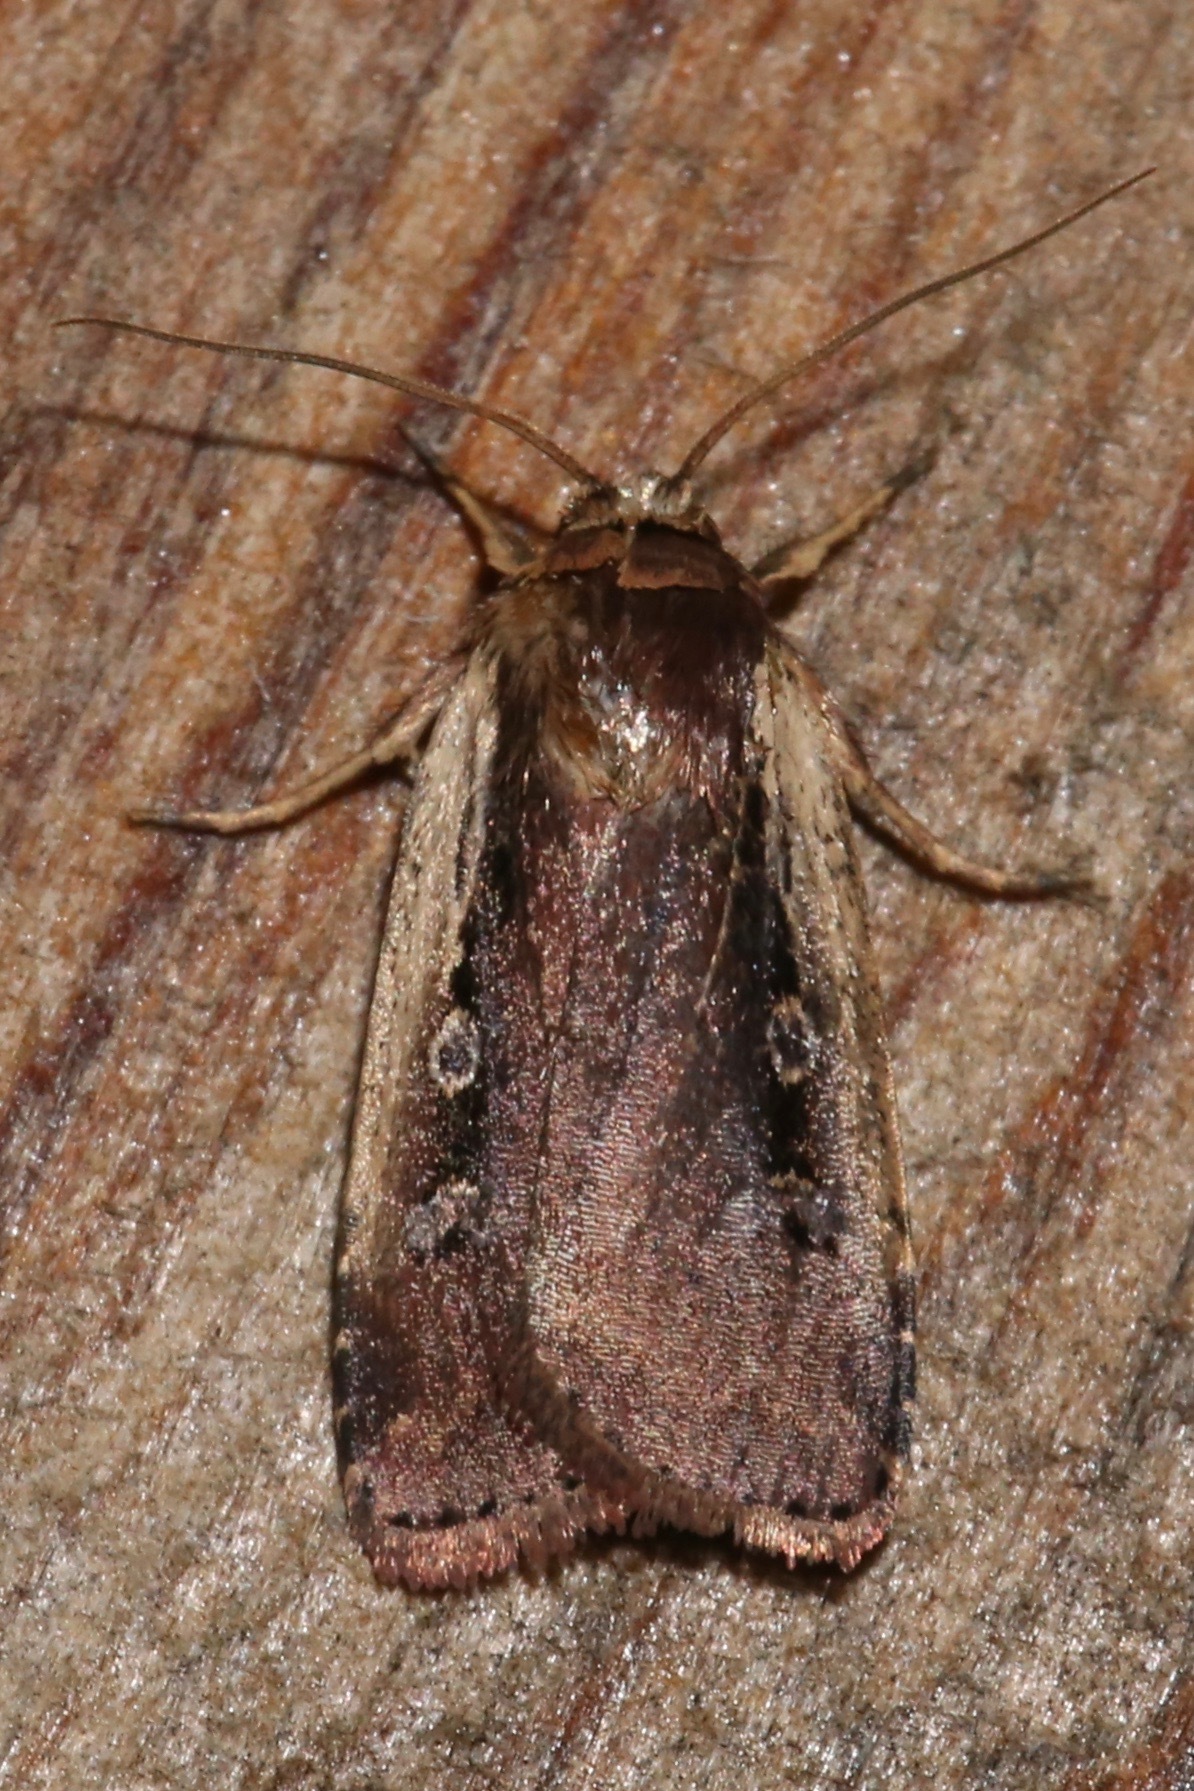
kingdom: Animalia
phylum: Arthropoda
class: Insecta
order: Lepidoptera
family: Noctuidae
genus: Ochropleura
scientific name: Ochropleura implecta
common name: Flame-shouldered dart
